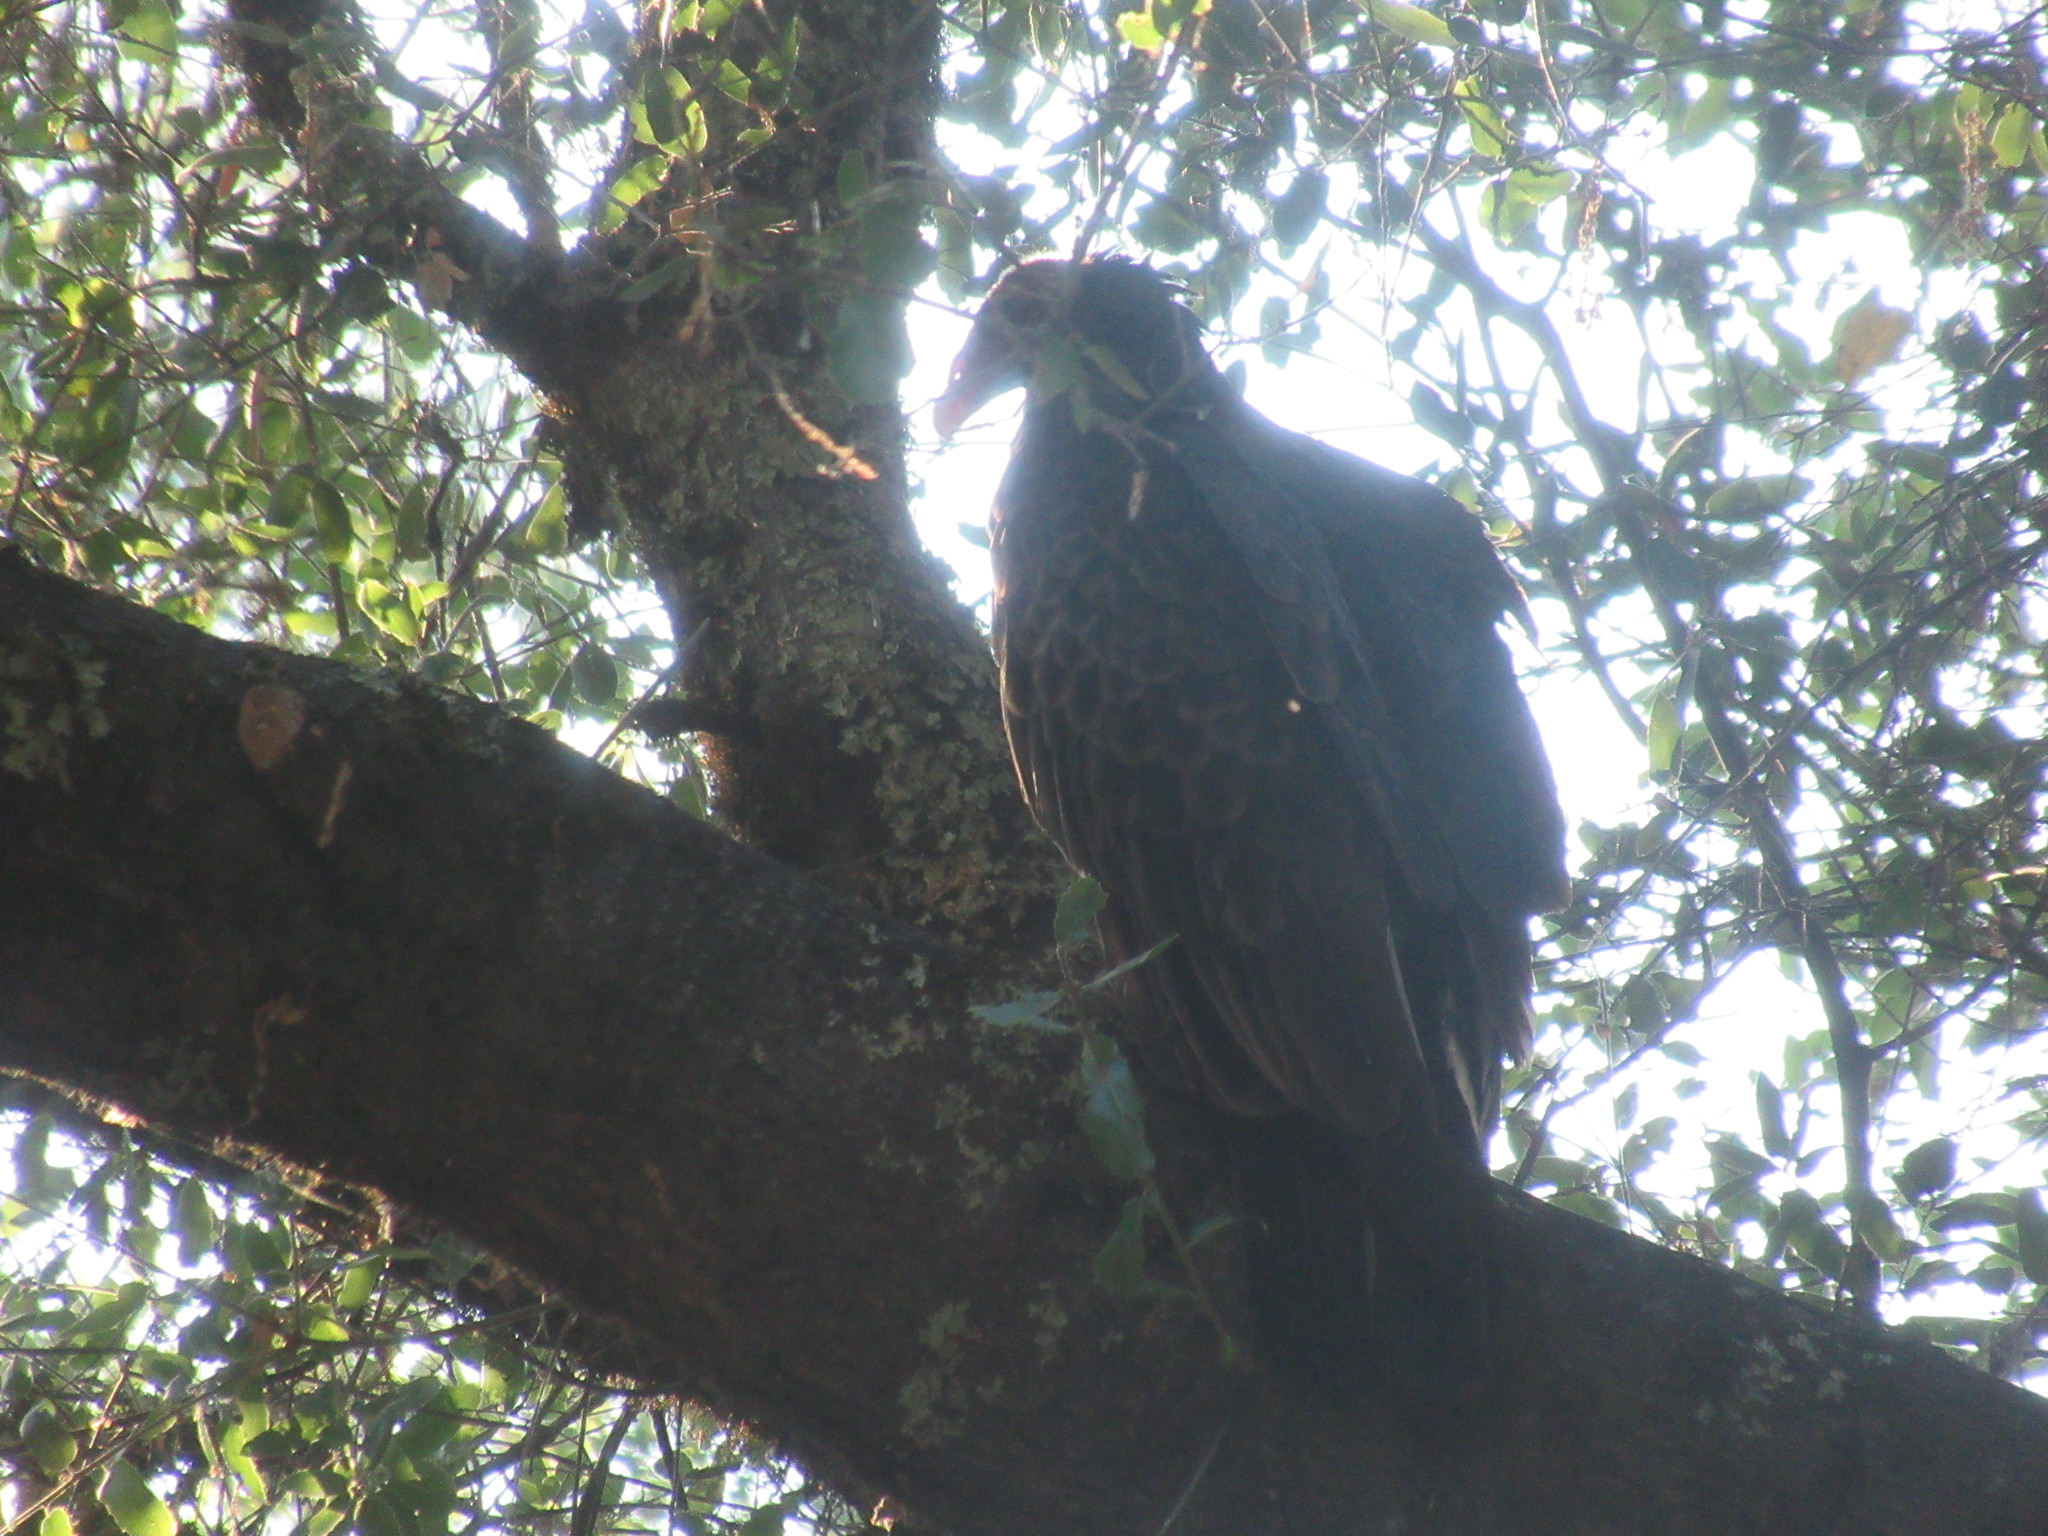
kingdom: Animalia
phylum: Chordata
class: Aves
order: Accipitriformes
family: Cathartidae
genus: Cathartes
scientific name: Cathartes aura
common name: Turkey vulture
